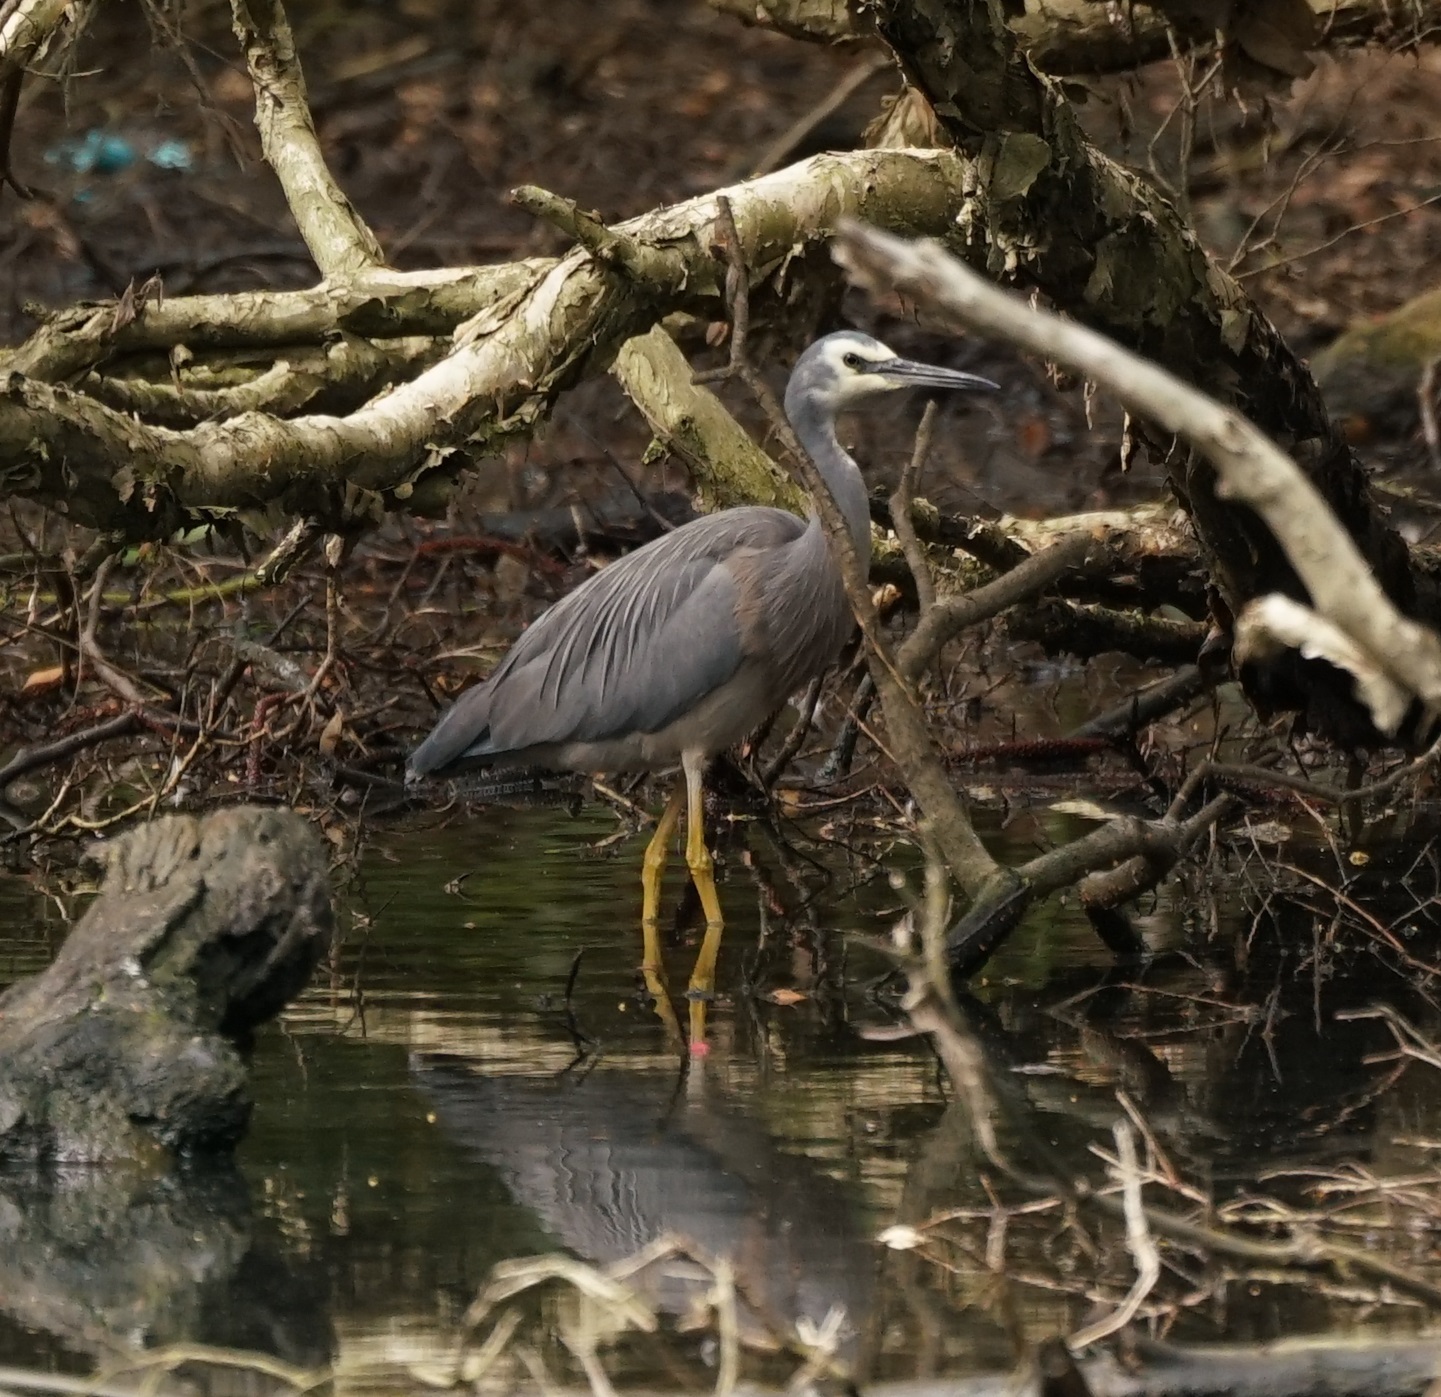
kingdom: Animalia
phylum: Chordata
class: Aves
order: Pelecaniformes
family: Ardeidae
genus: Egretta
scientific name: Egretta novaehollandiae
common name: White-faced heron
